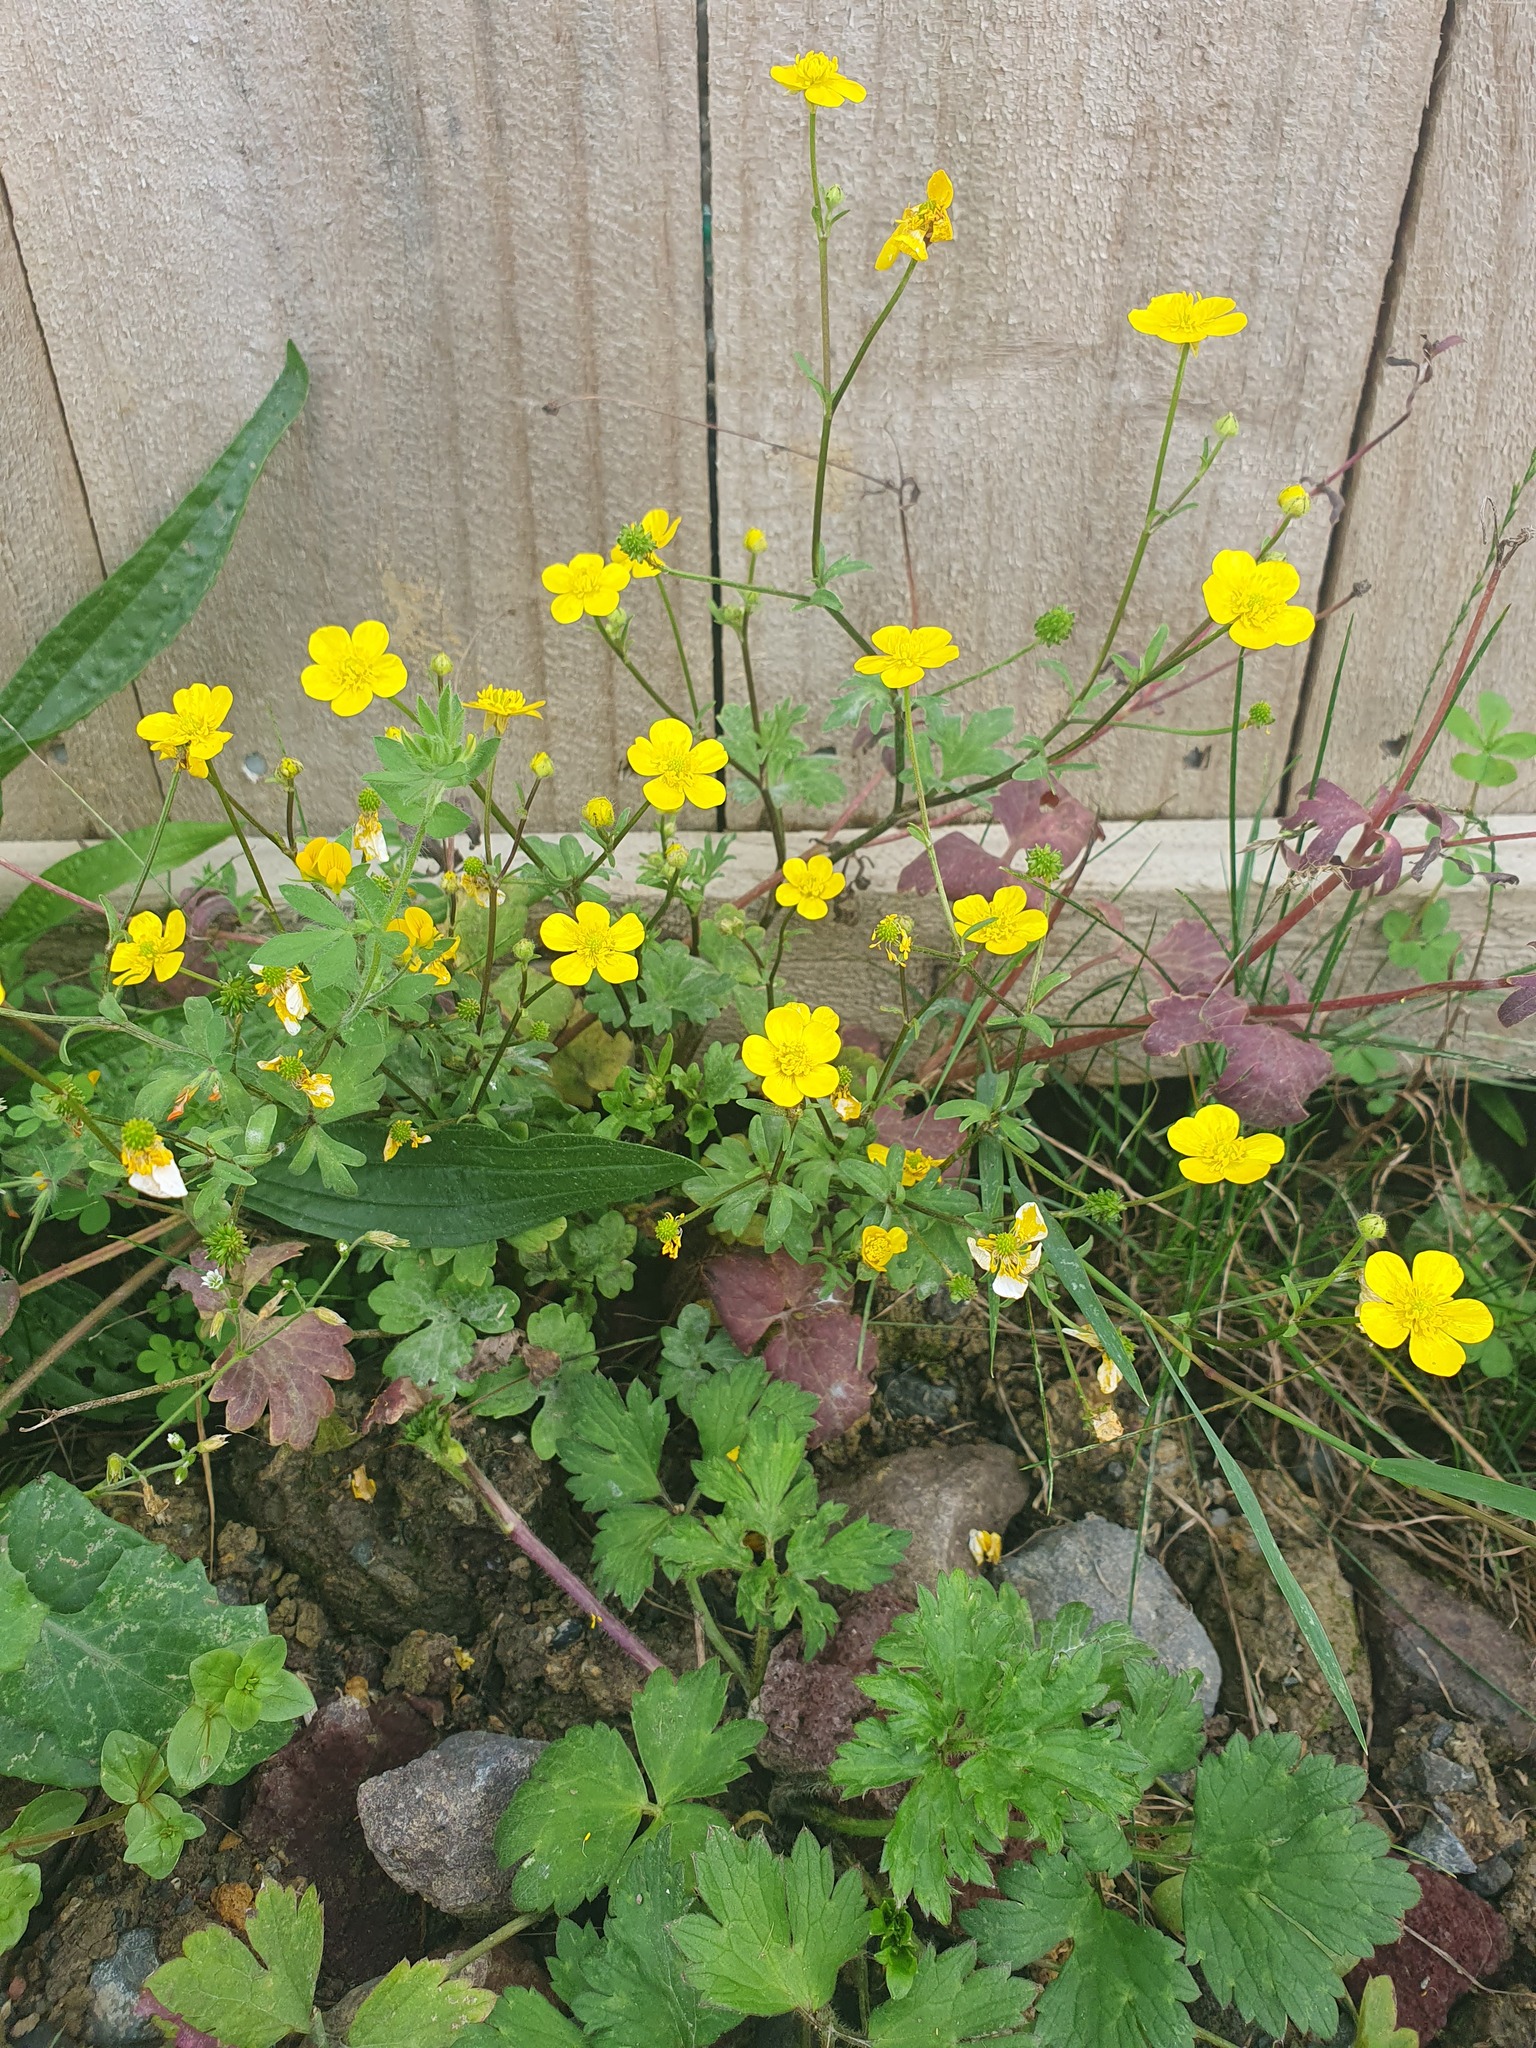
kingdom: Plantae
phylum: Tracheophyta
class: Magnoliopsida
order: Ranunculales
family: Ranunculaceae
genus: Ranunculus
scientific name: Ranunculus repens
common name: Creeping buttercup
